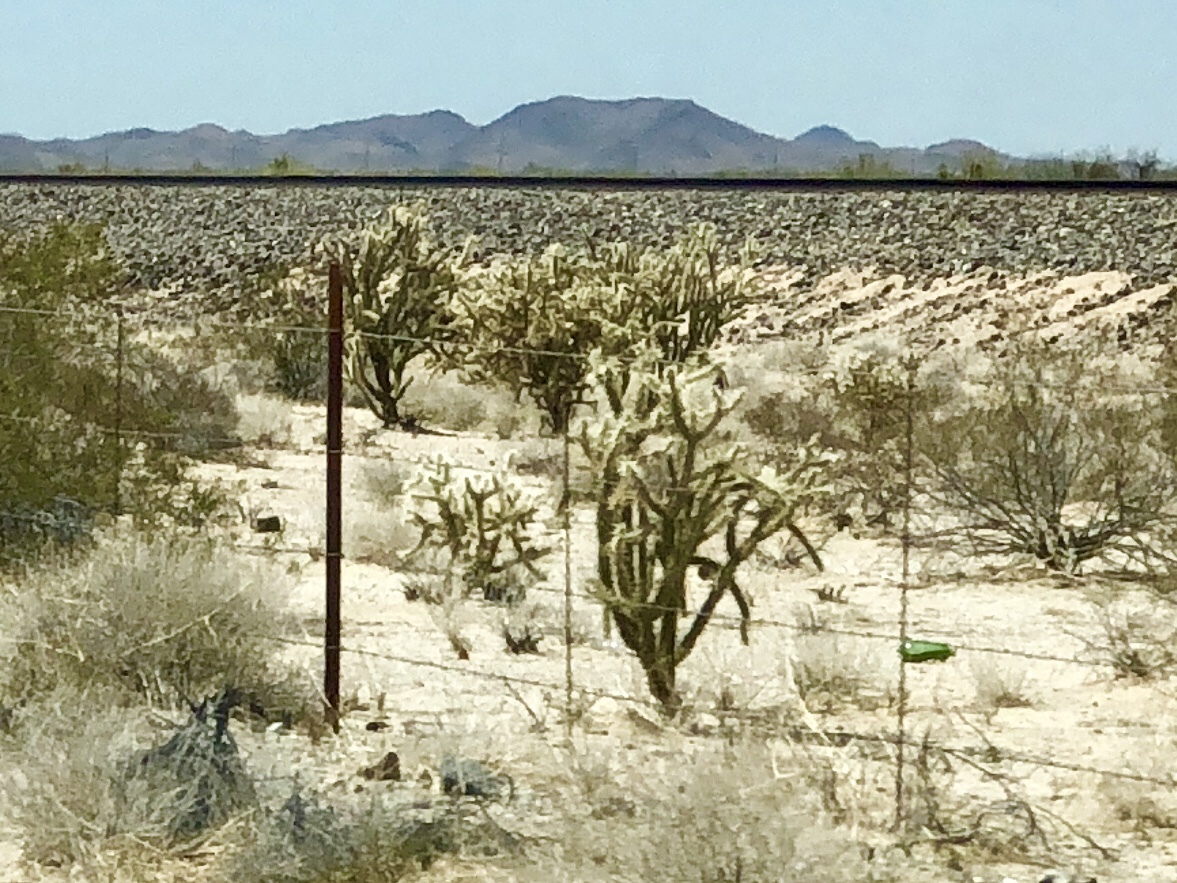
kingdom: Plantae
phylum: Tracheophyta
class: Magnoliopsida
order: Caryophyllales
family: Cactaceae
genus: Cylindropuntia
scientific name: Cylindropuntia acanthocarpa
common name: Buckhorn cholla
